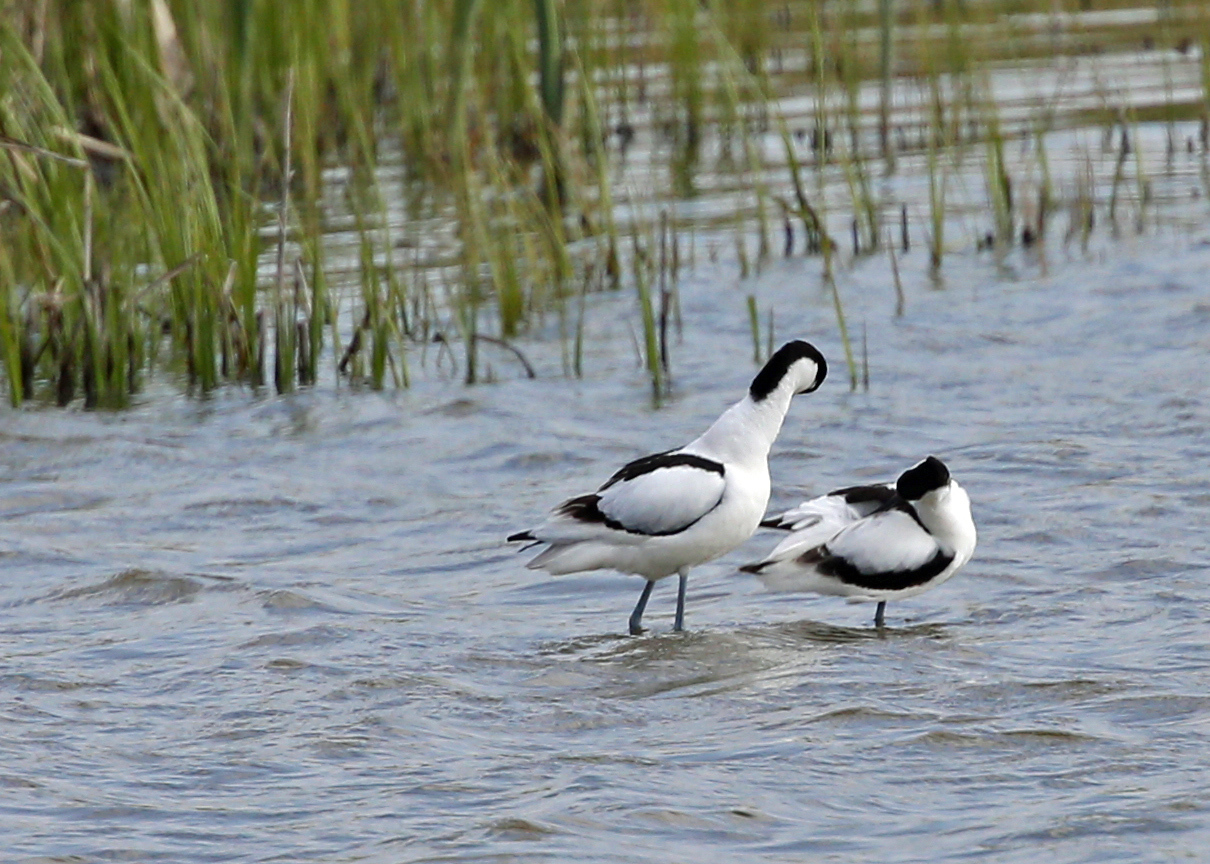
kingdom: Animalia
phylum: Chordata
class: Aves
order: Charadriiformes
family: Recurvirostridae
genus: Recurvirostra
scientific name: Recurvirostra avosetta
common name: Pied avocet
